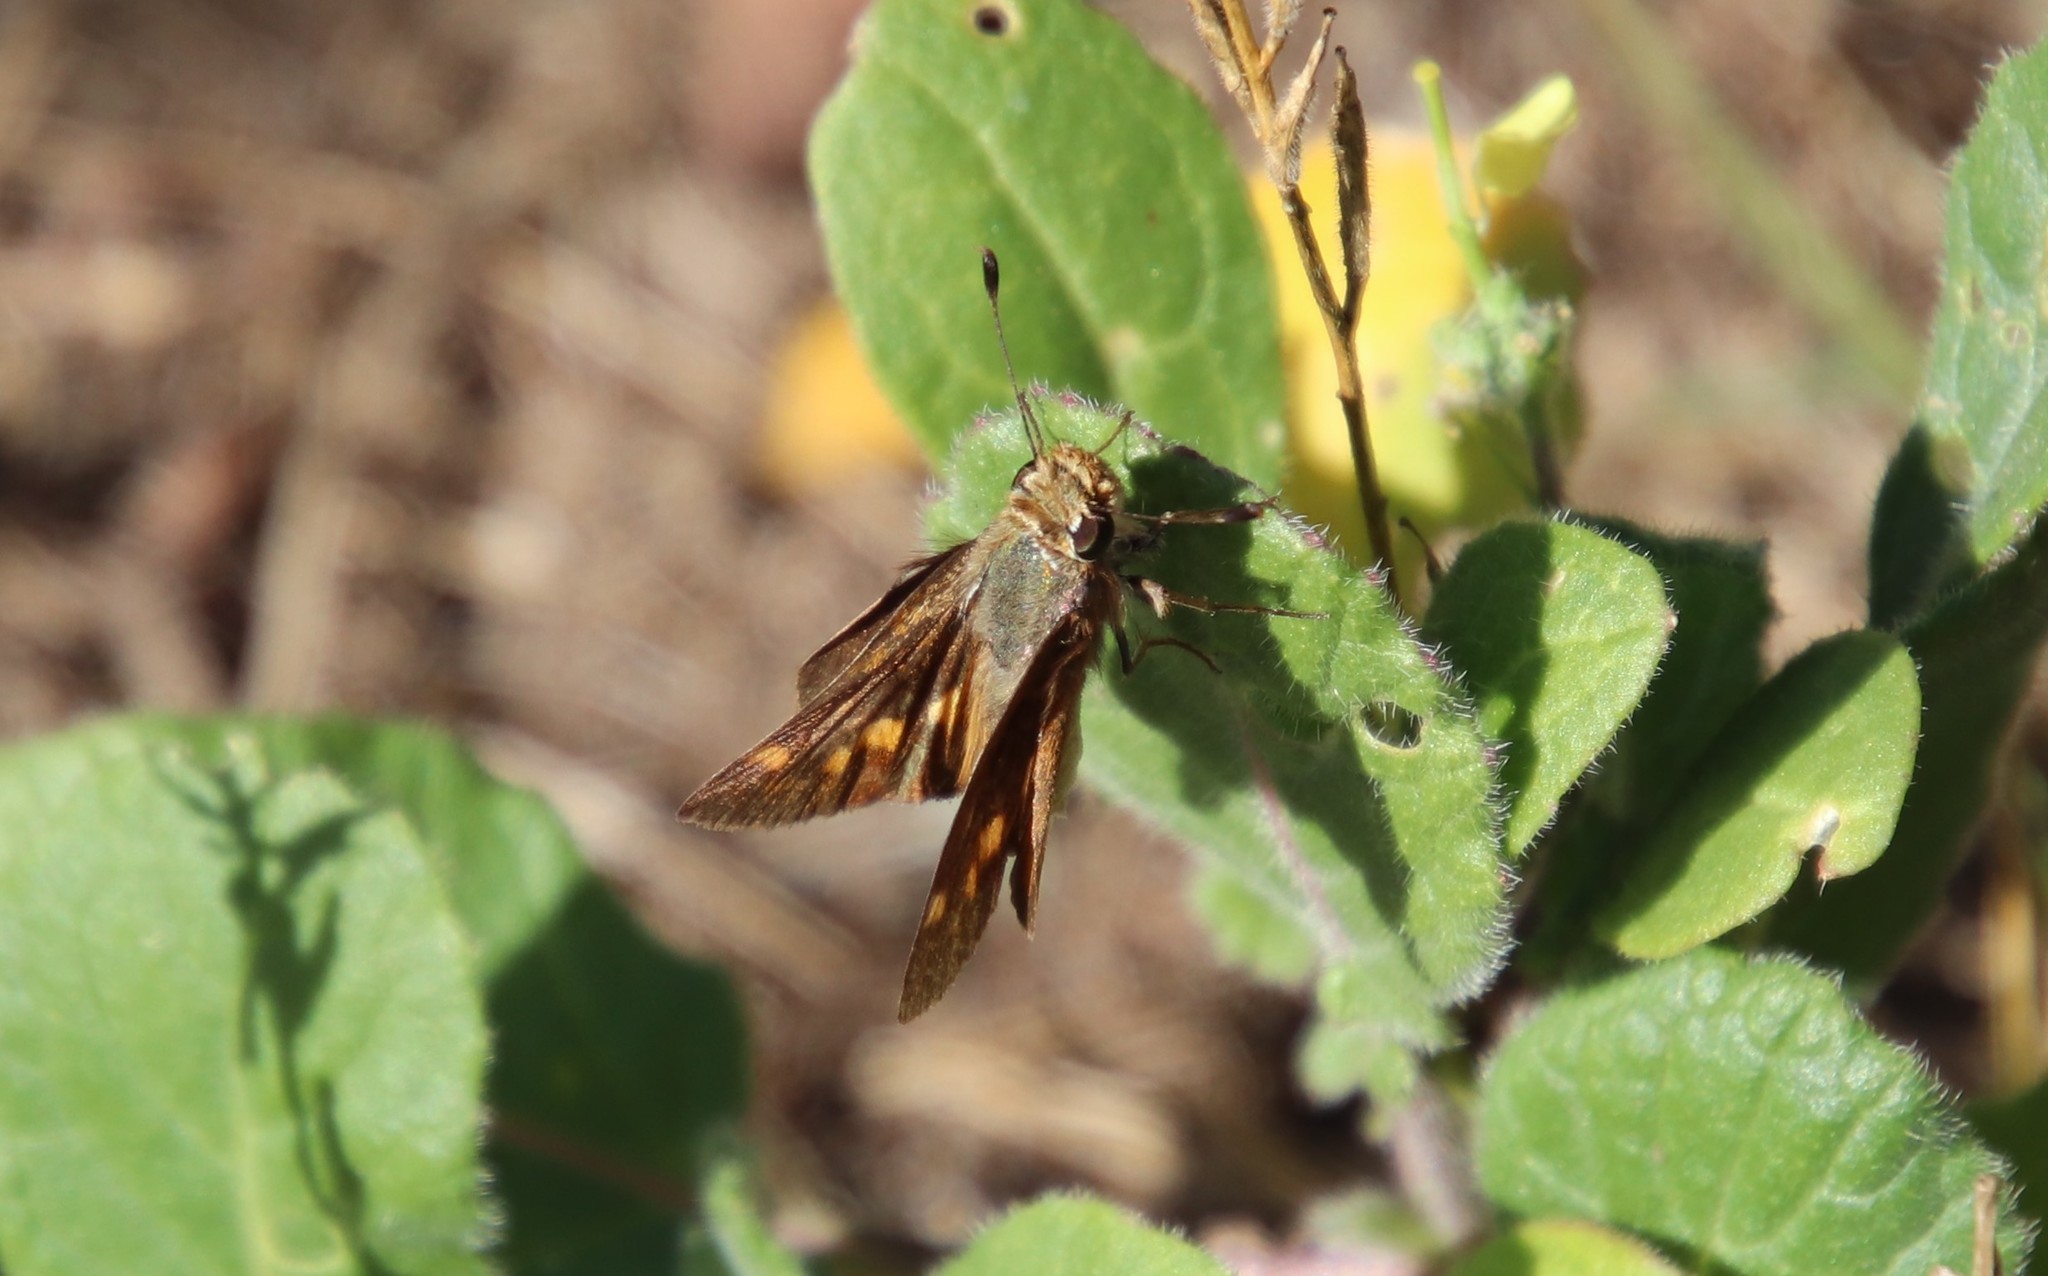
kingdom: Animalia
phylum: Arthropoda
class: Insecta
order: Lepidoptera
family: Hesperiidae
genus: Lon
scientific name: Lon melane
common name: Umber skipper
